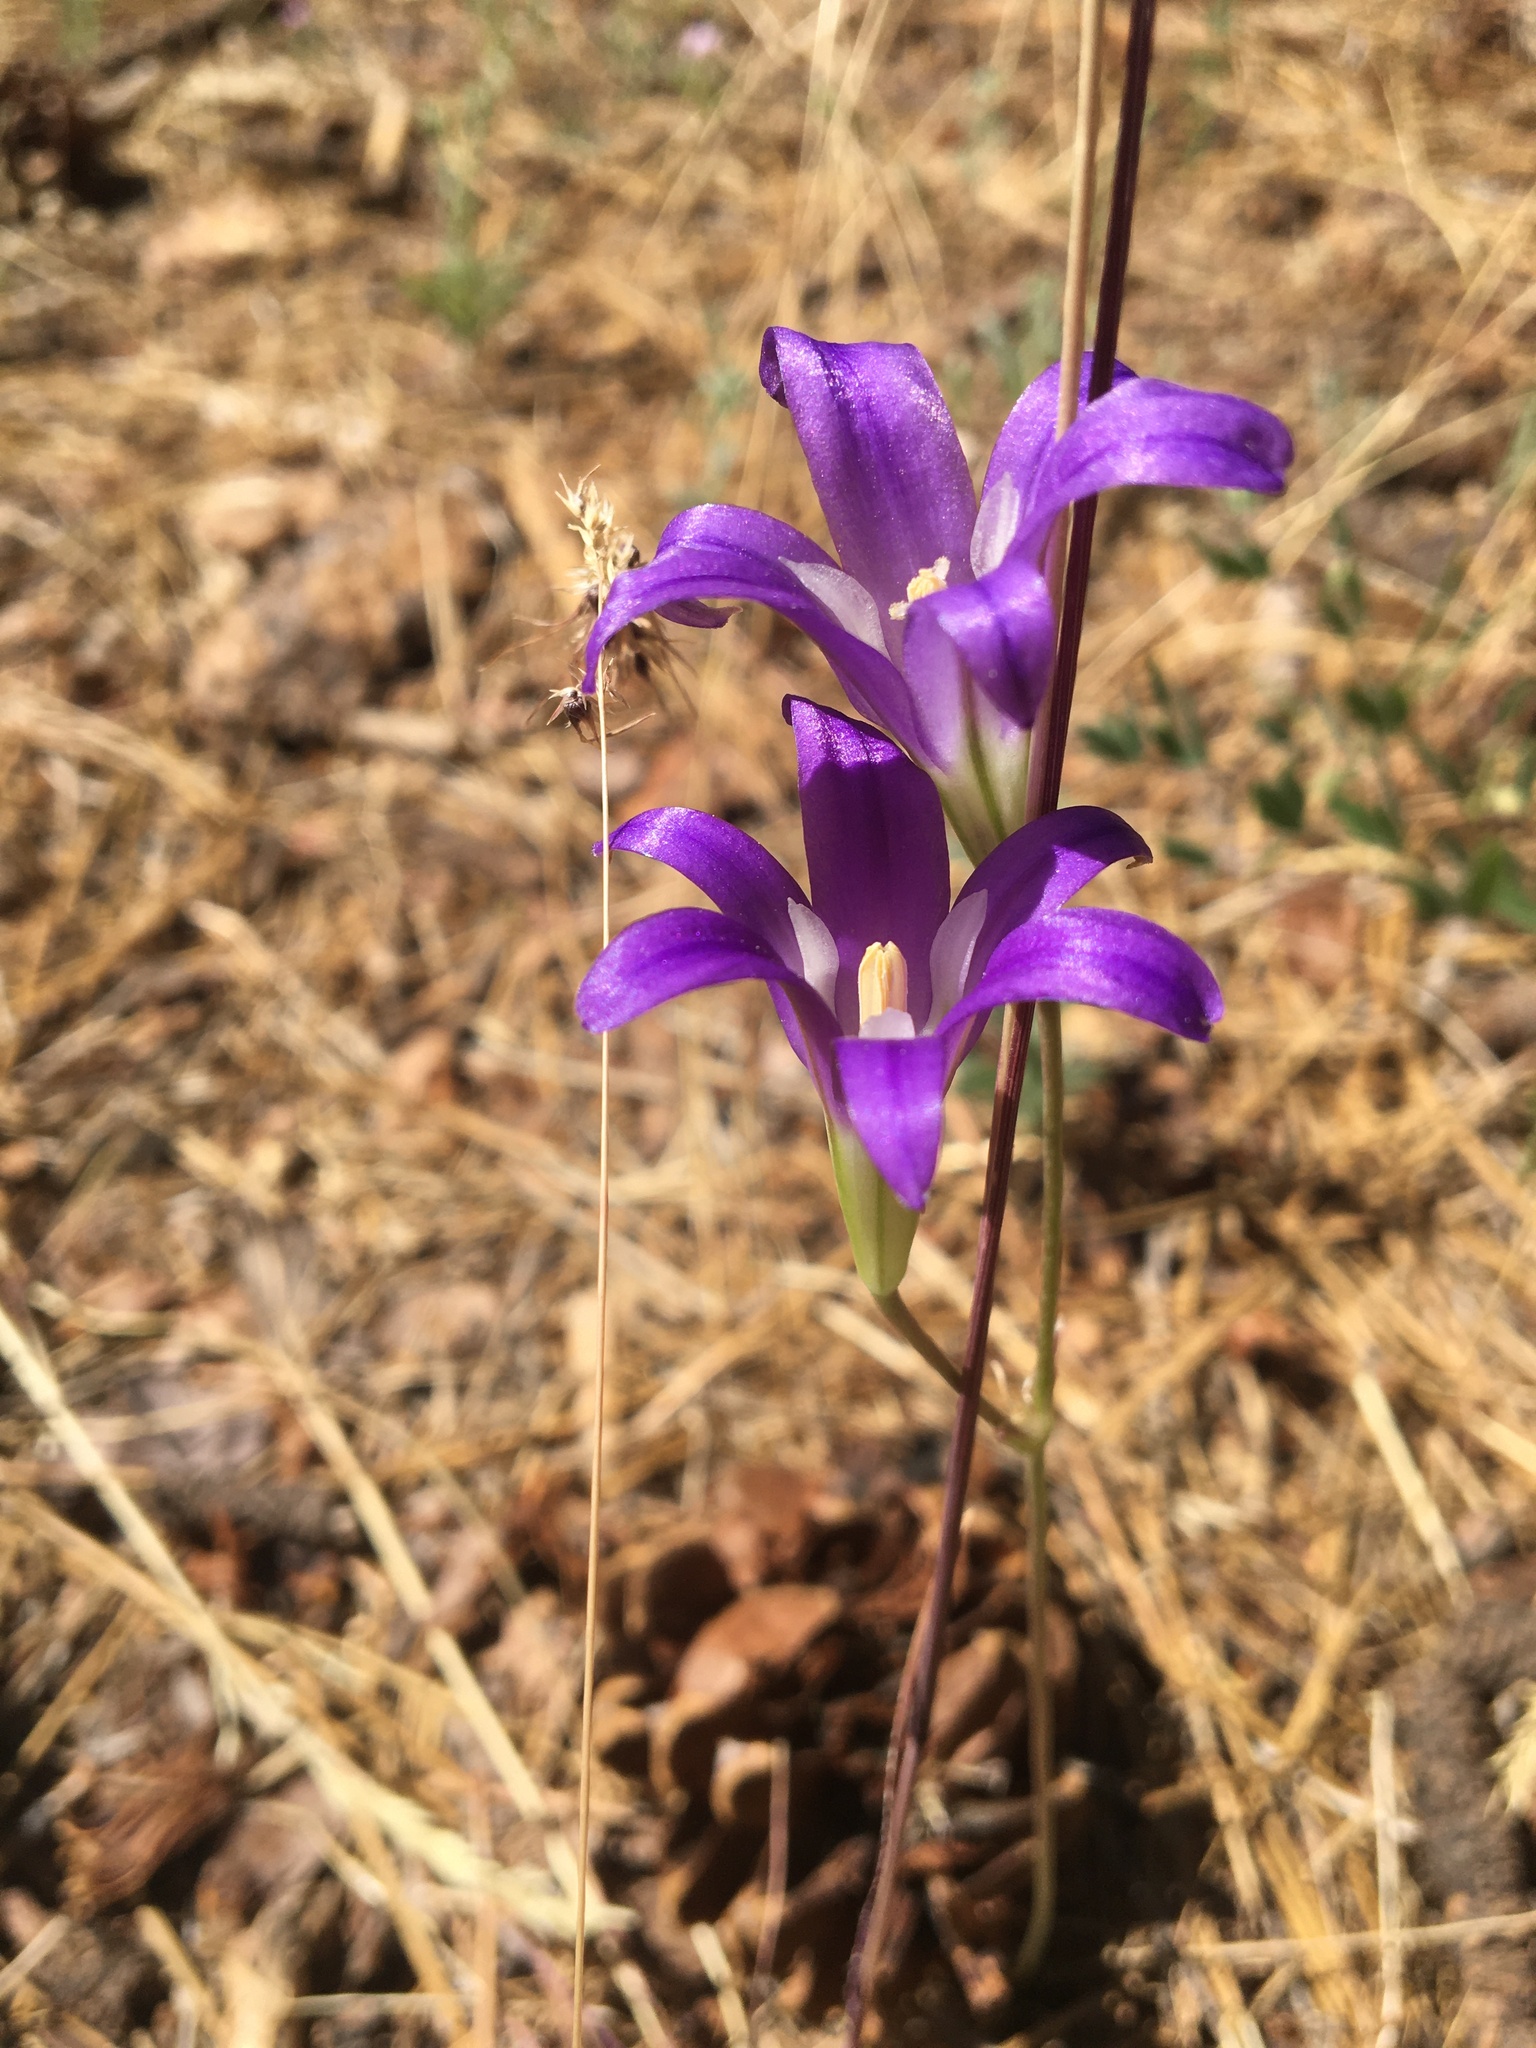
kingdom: Plantae
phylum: Tracheophyta
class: Liliopsida
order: Asparagales
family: Asparagaceae
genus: Brodiaea
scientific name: Brodiaea elegans
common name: Elegant cluster-lily
